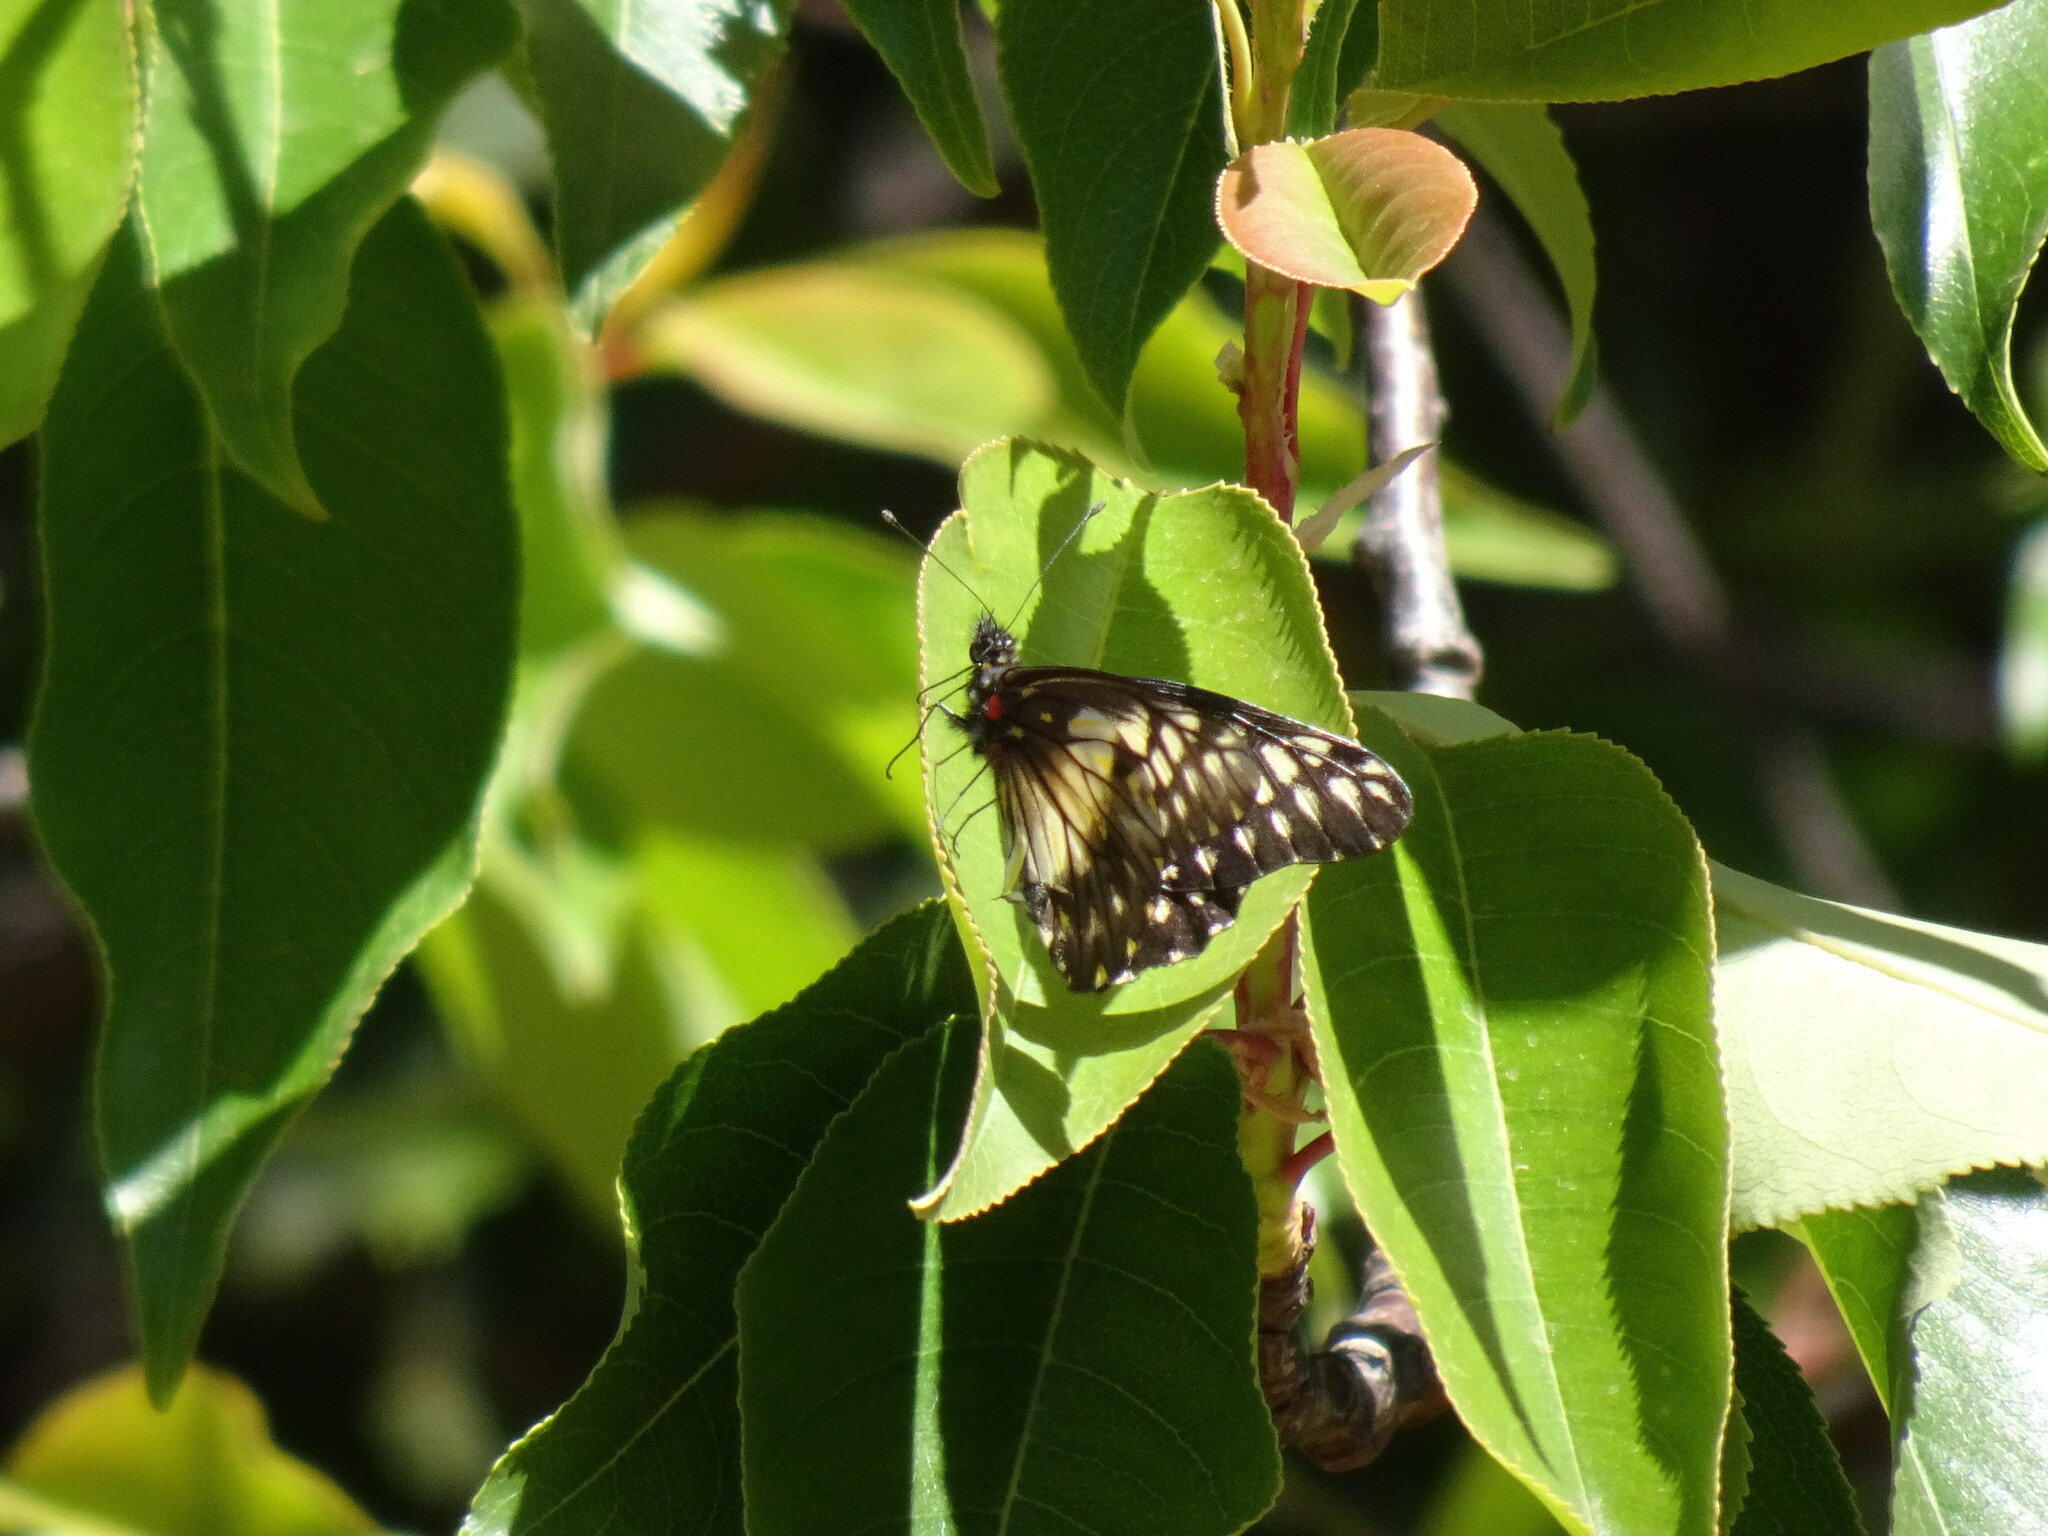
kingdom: Animalia
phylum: Arthropoda
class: Insecta
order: Lepidoptera
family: Pieridae
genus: Archonias
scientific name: Archonias nimbice
